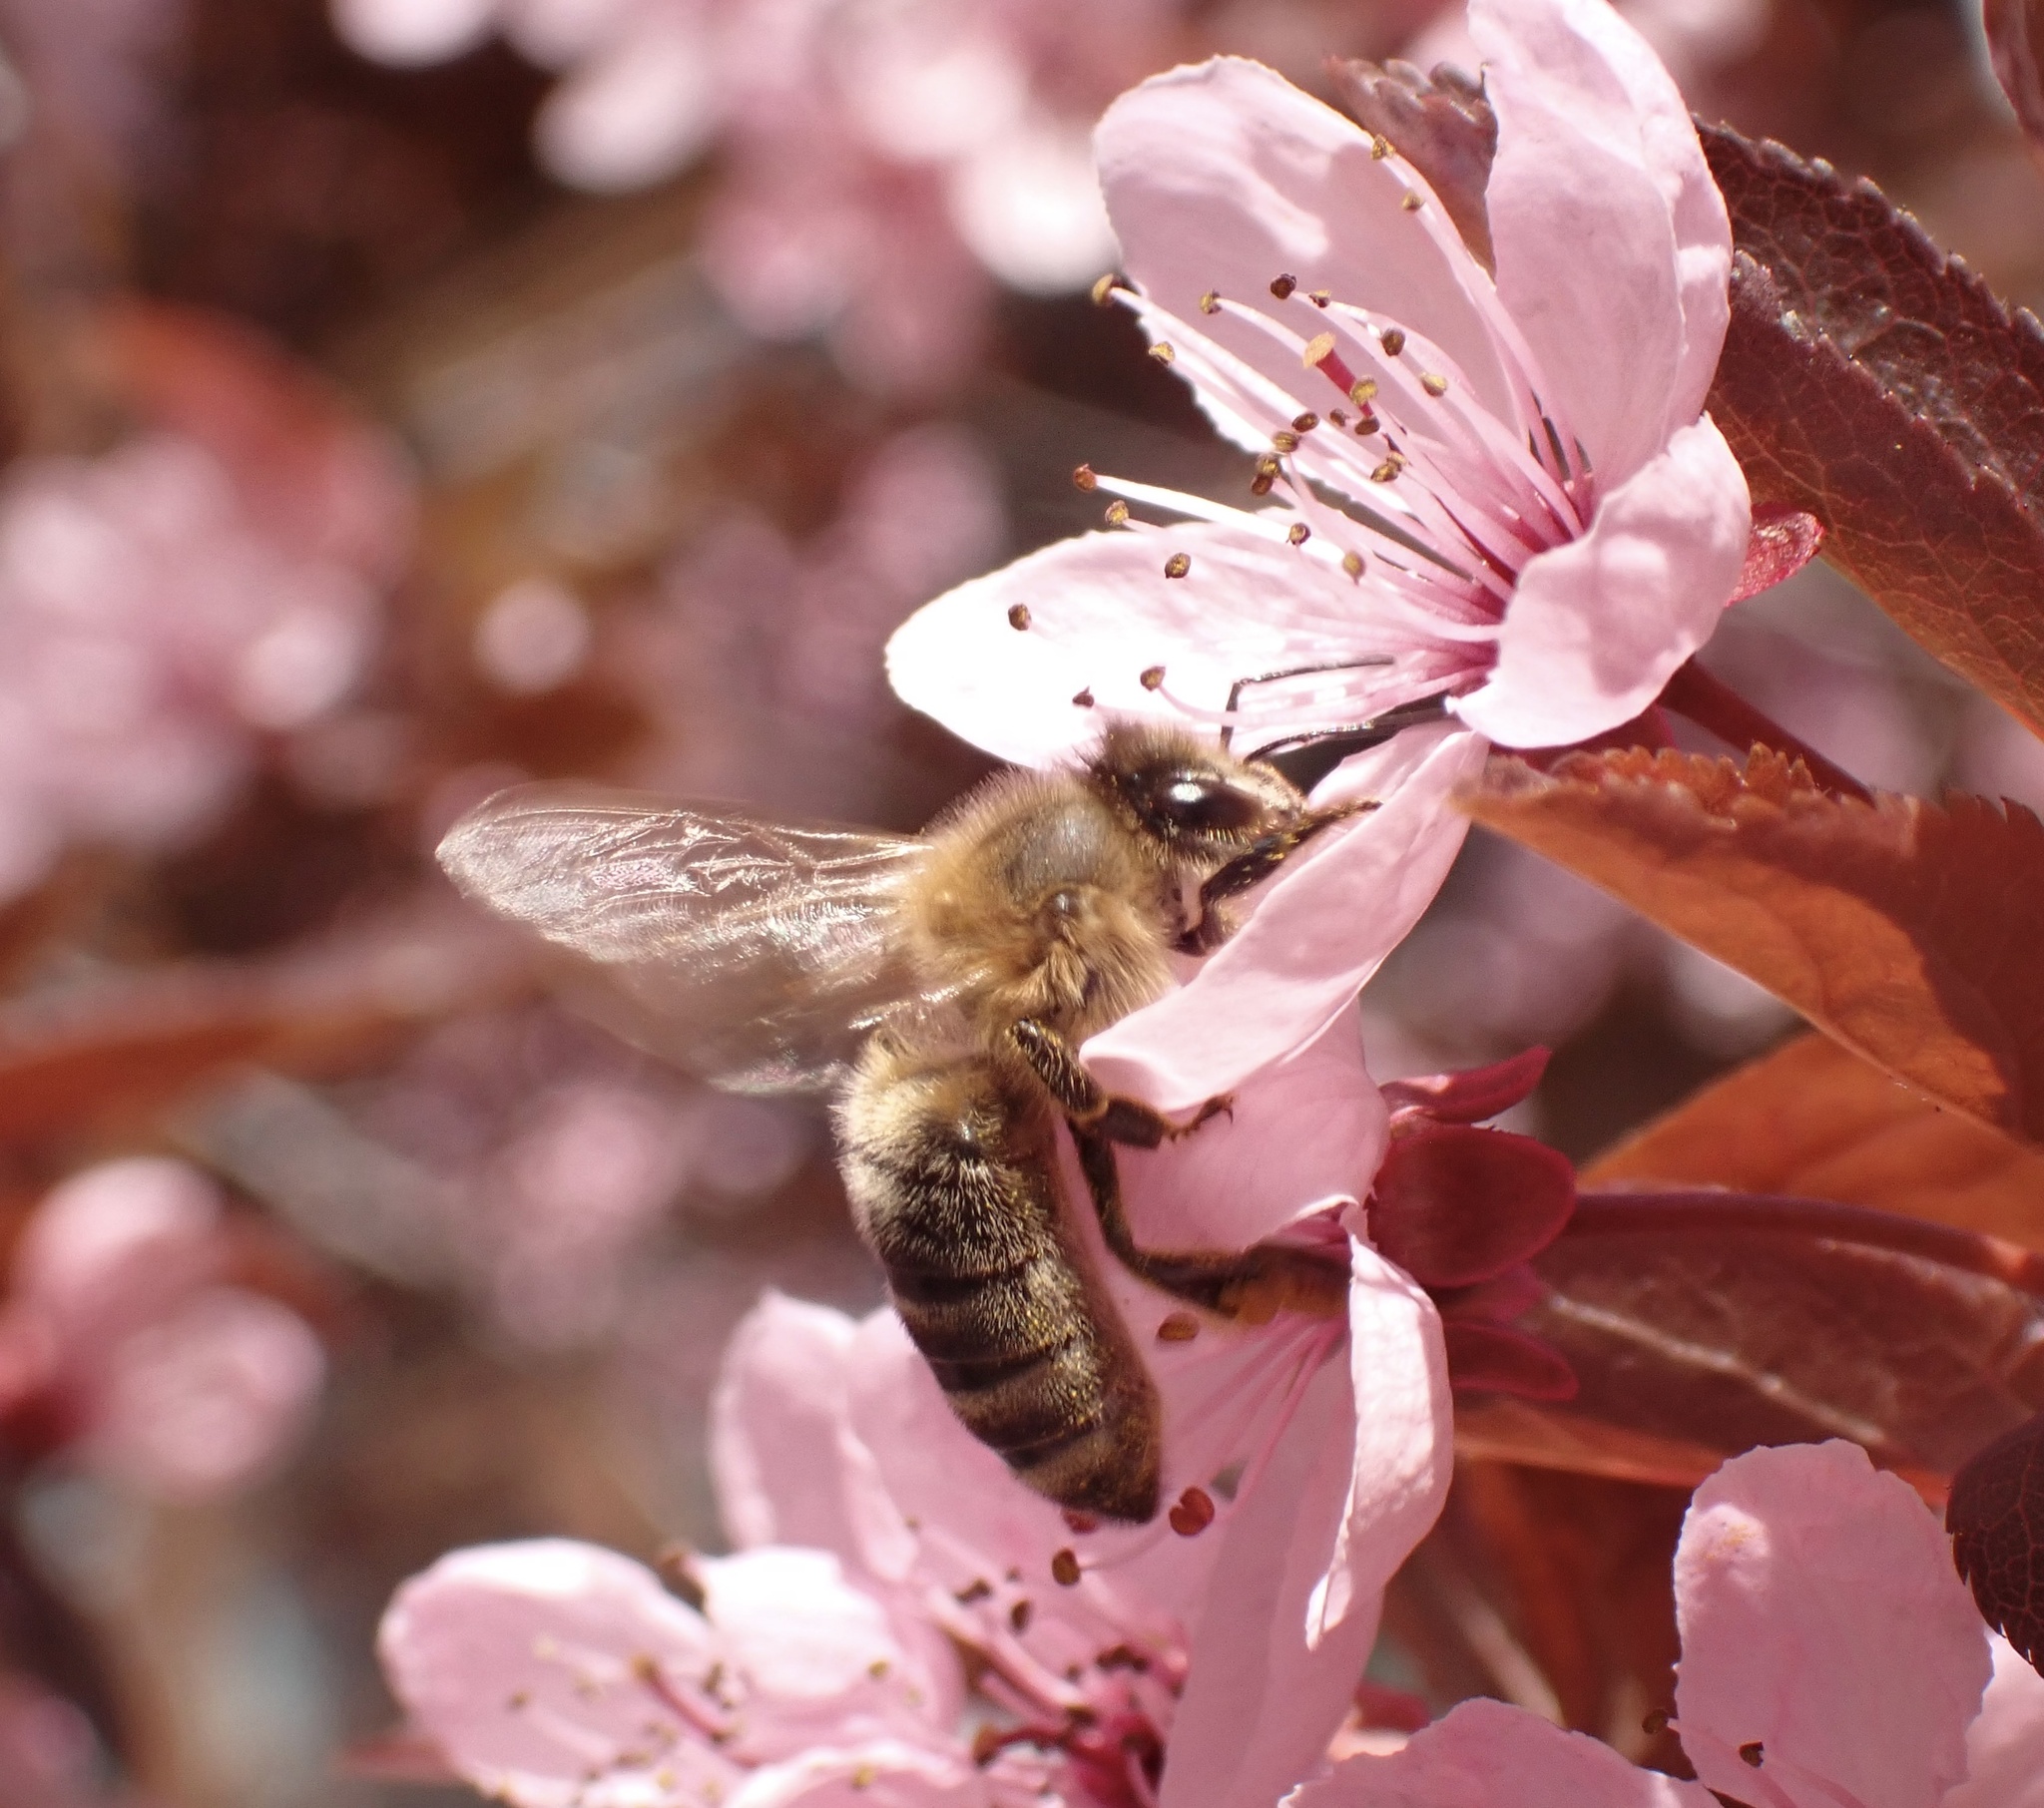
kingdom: Animalia
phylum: Arthropoda
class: Insecta
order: Hymenoptera
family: Apidae
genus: Apis
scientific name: Apis mellifera
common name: Honey bee
